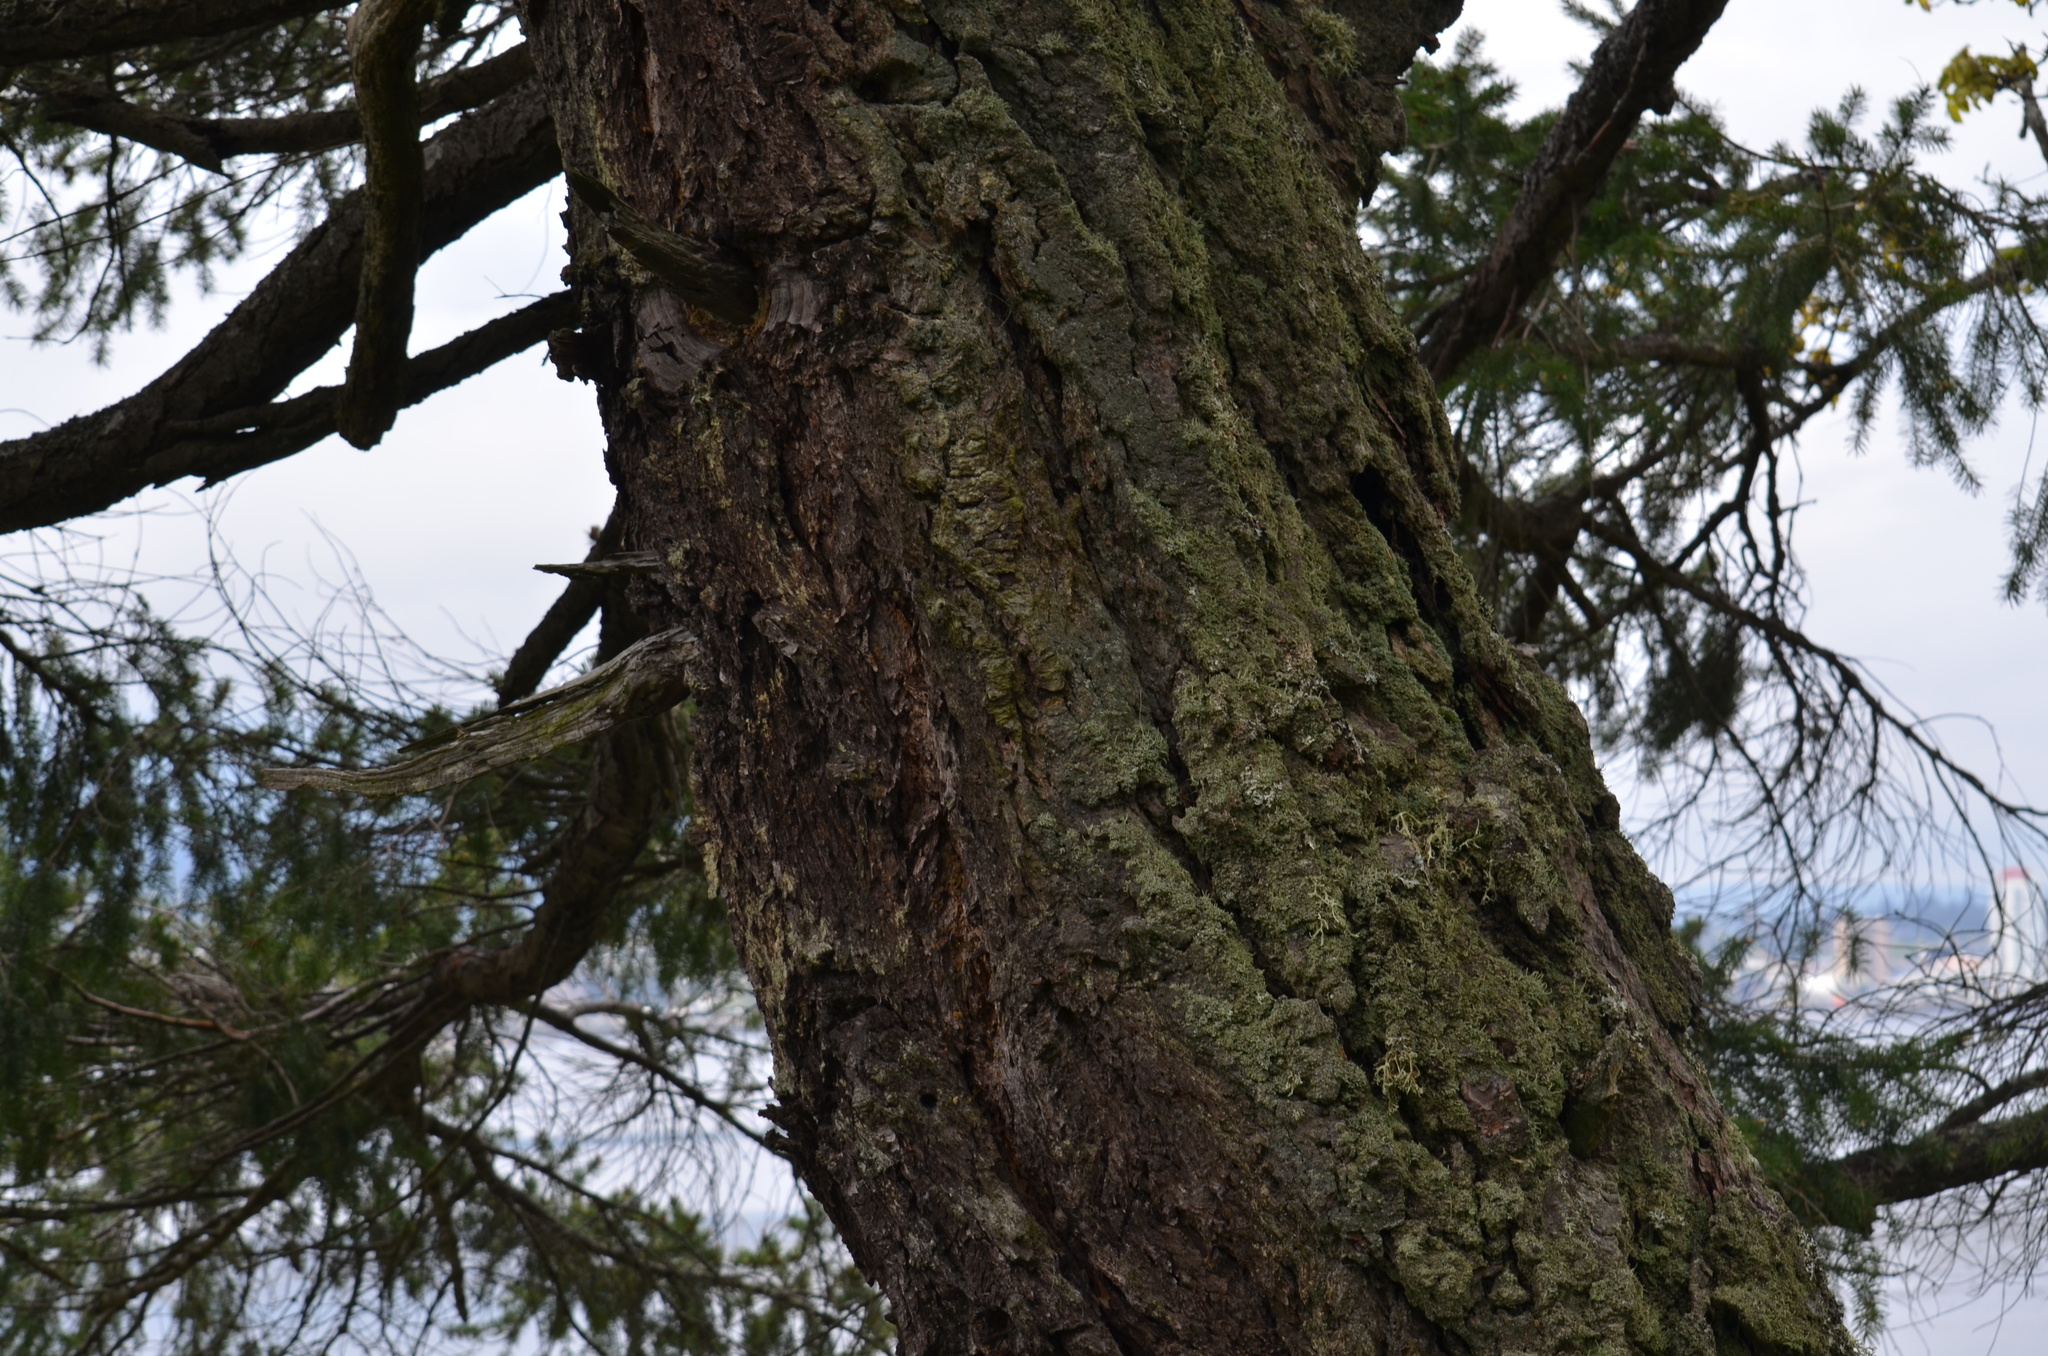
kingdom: Plantae
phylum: Tracheophyta
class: Pinopsida
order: Pinales
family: Pinaceae
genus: Pseudotsuga
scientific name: Pseudotsuga menziesii
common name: Douglas fir
